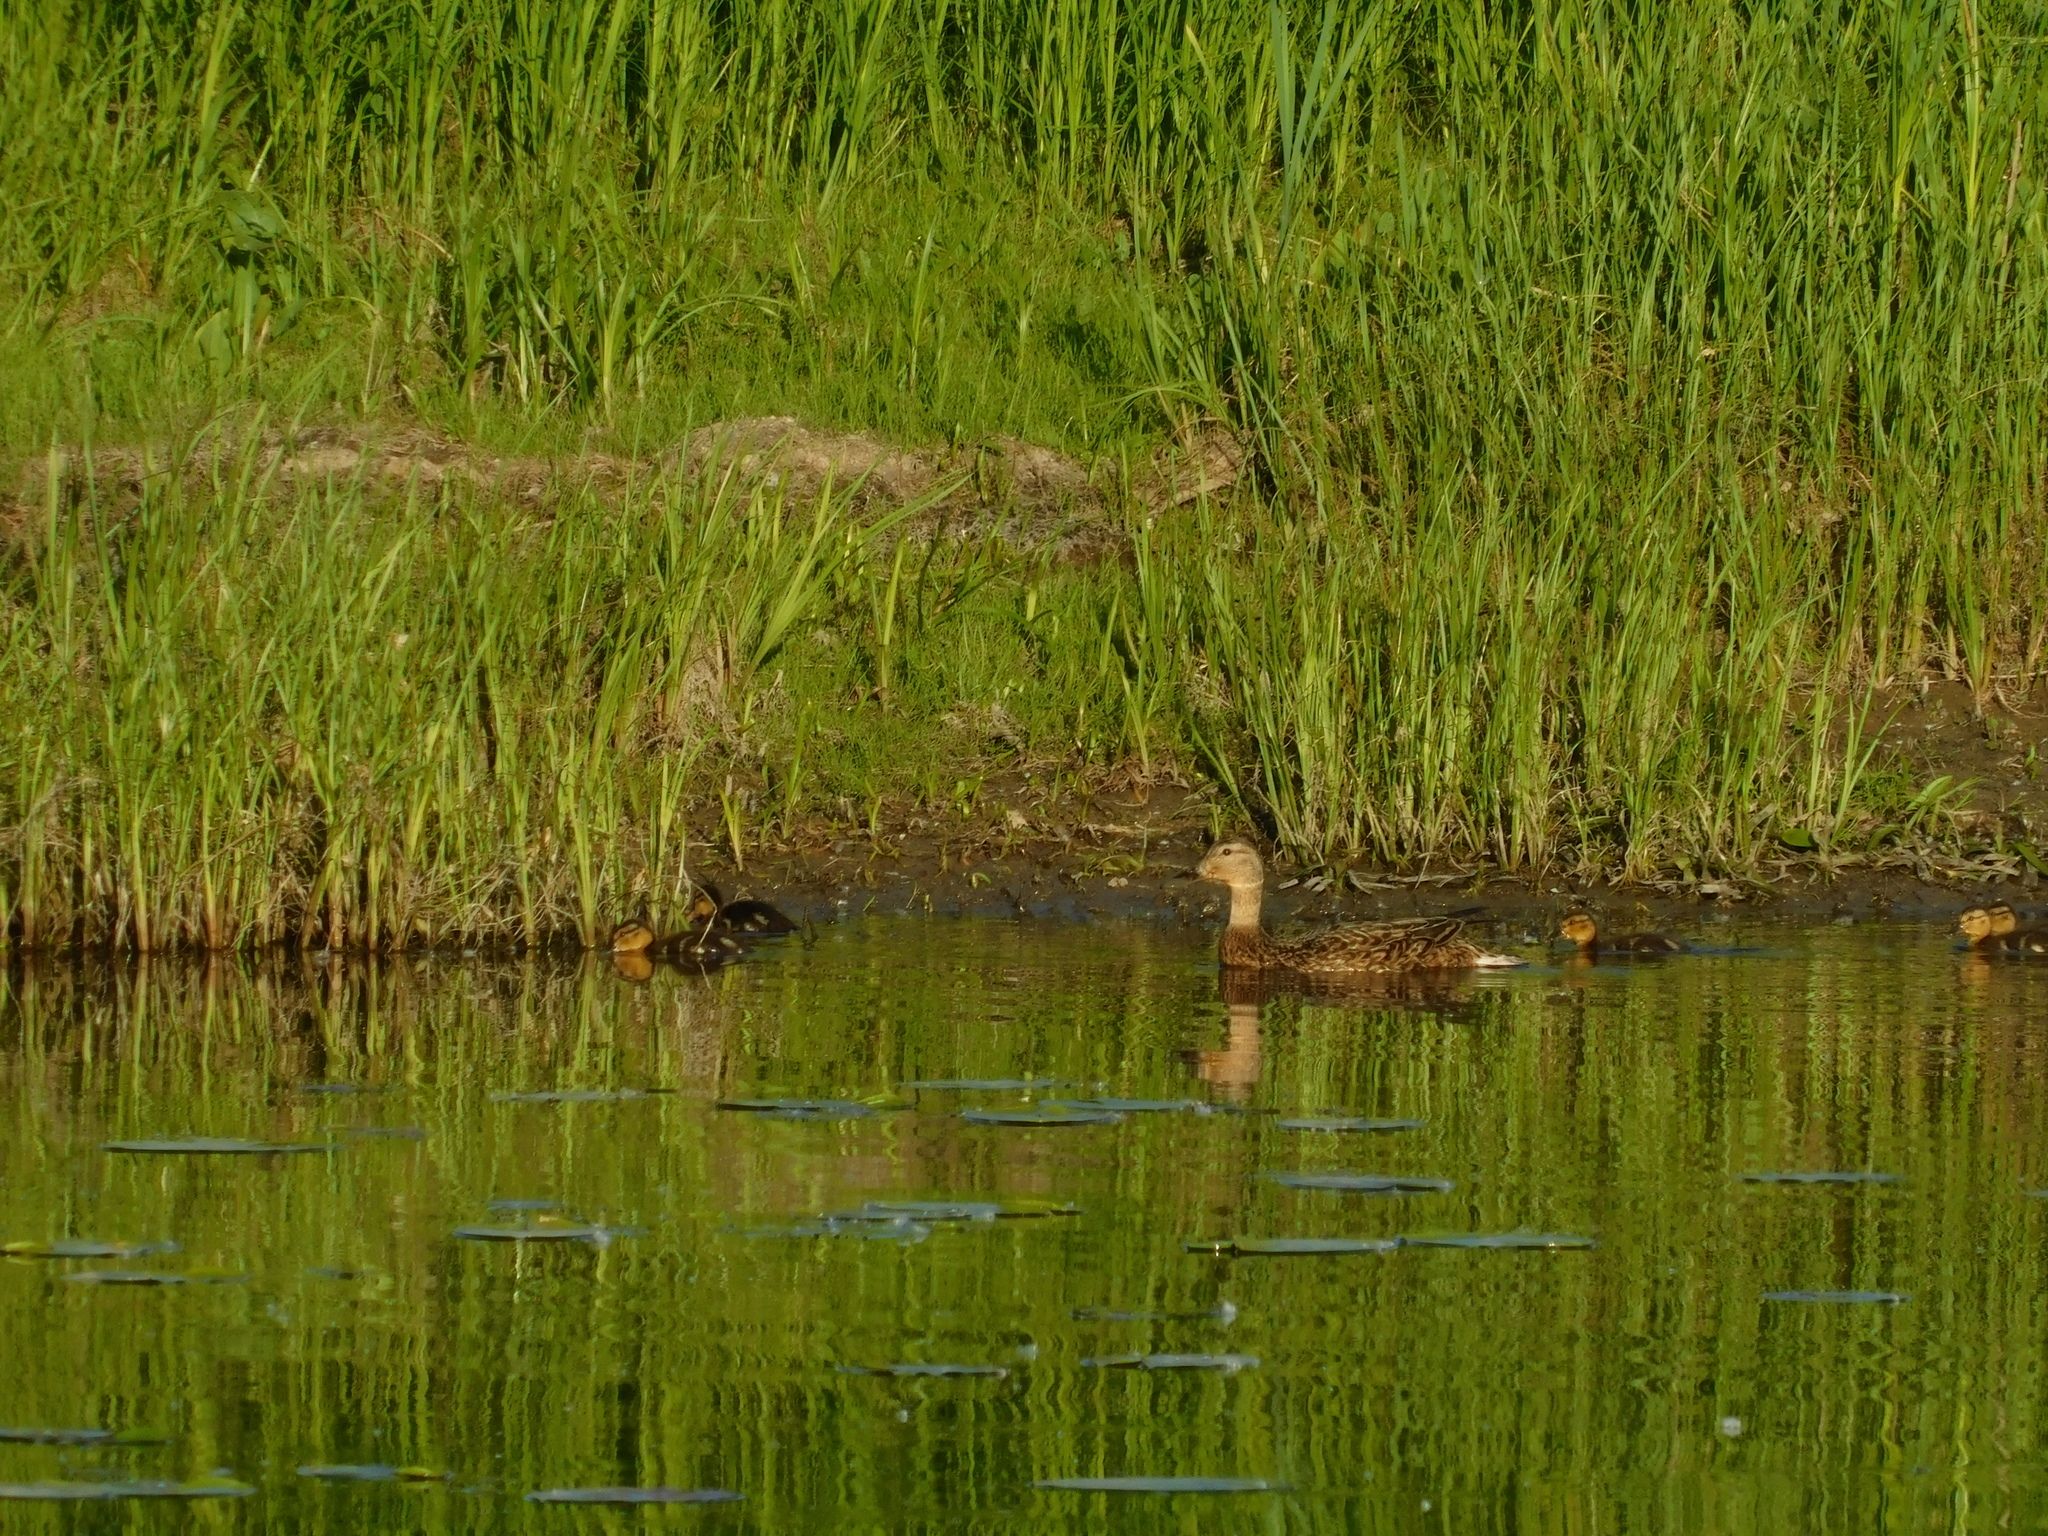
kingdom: Animalia
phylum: Chordata
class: Aves
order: Anseriformes
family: Anatidae
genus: Anas
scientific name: Anas platyrhynchos
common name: Mallard
